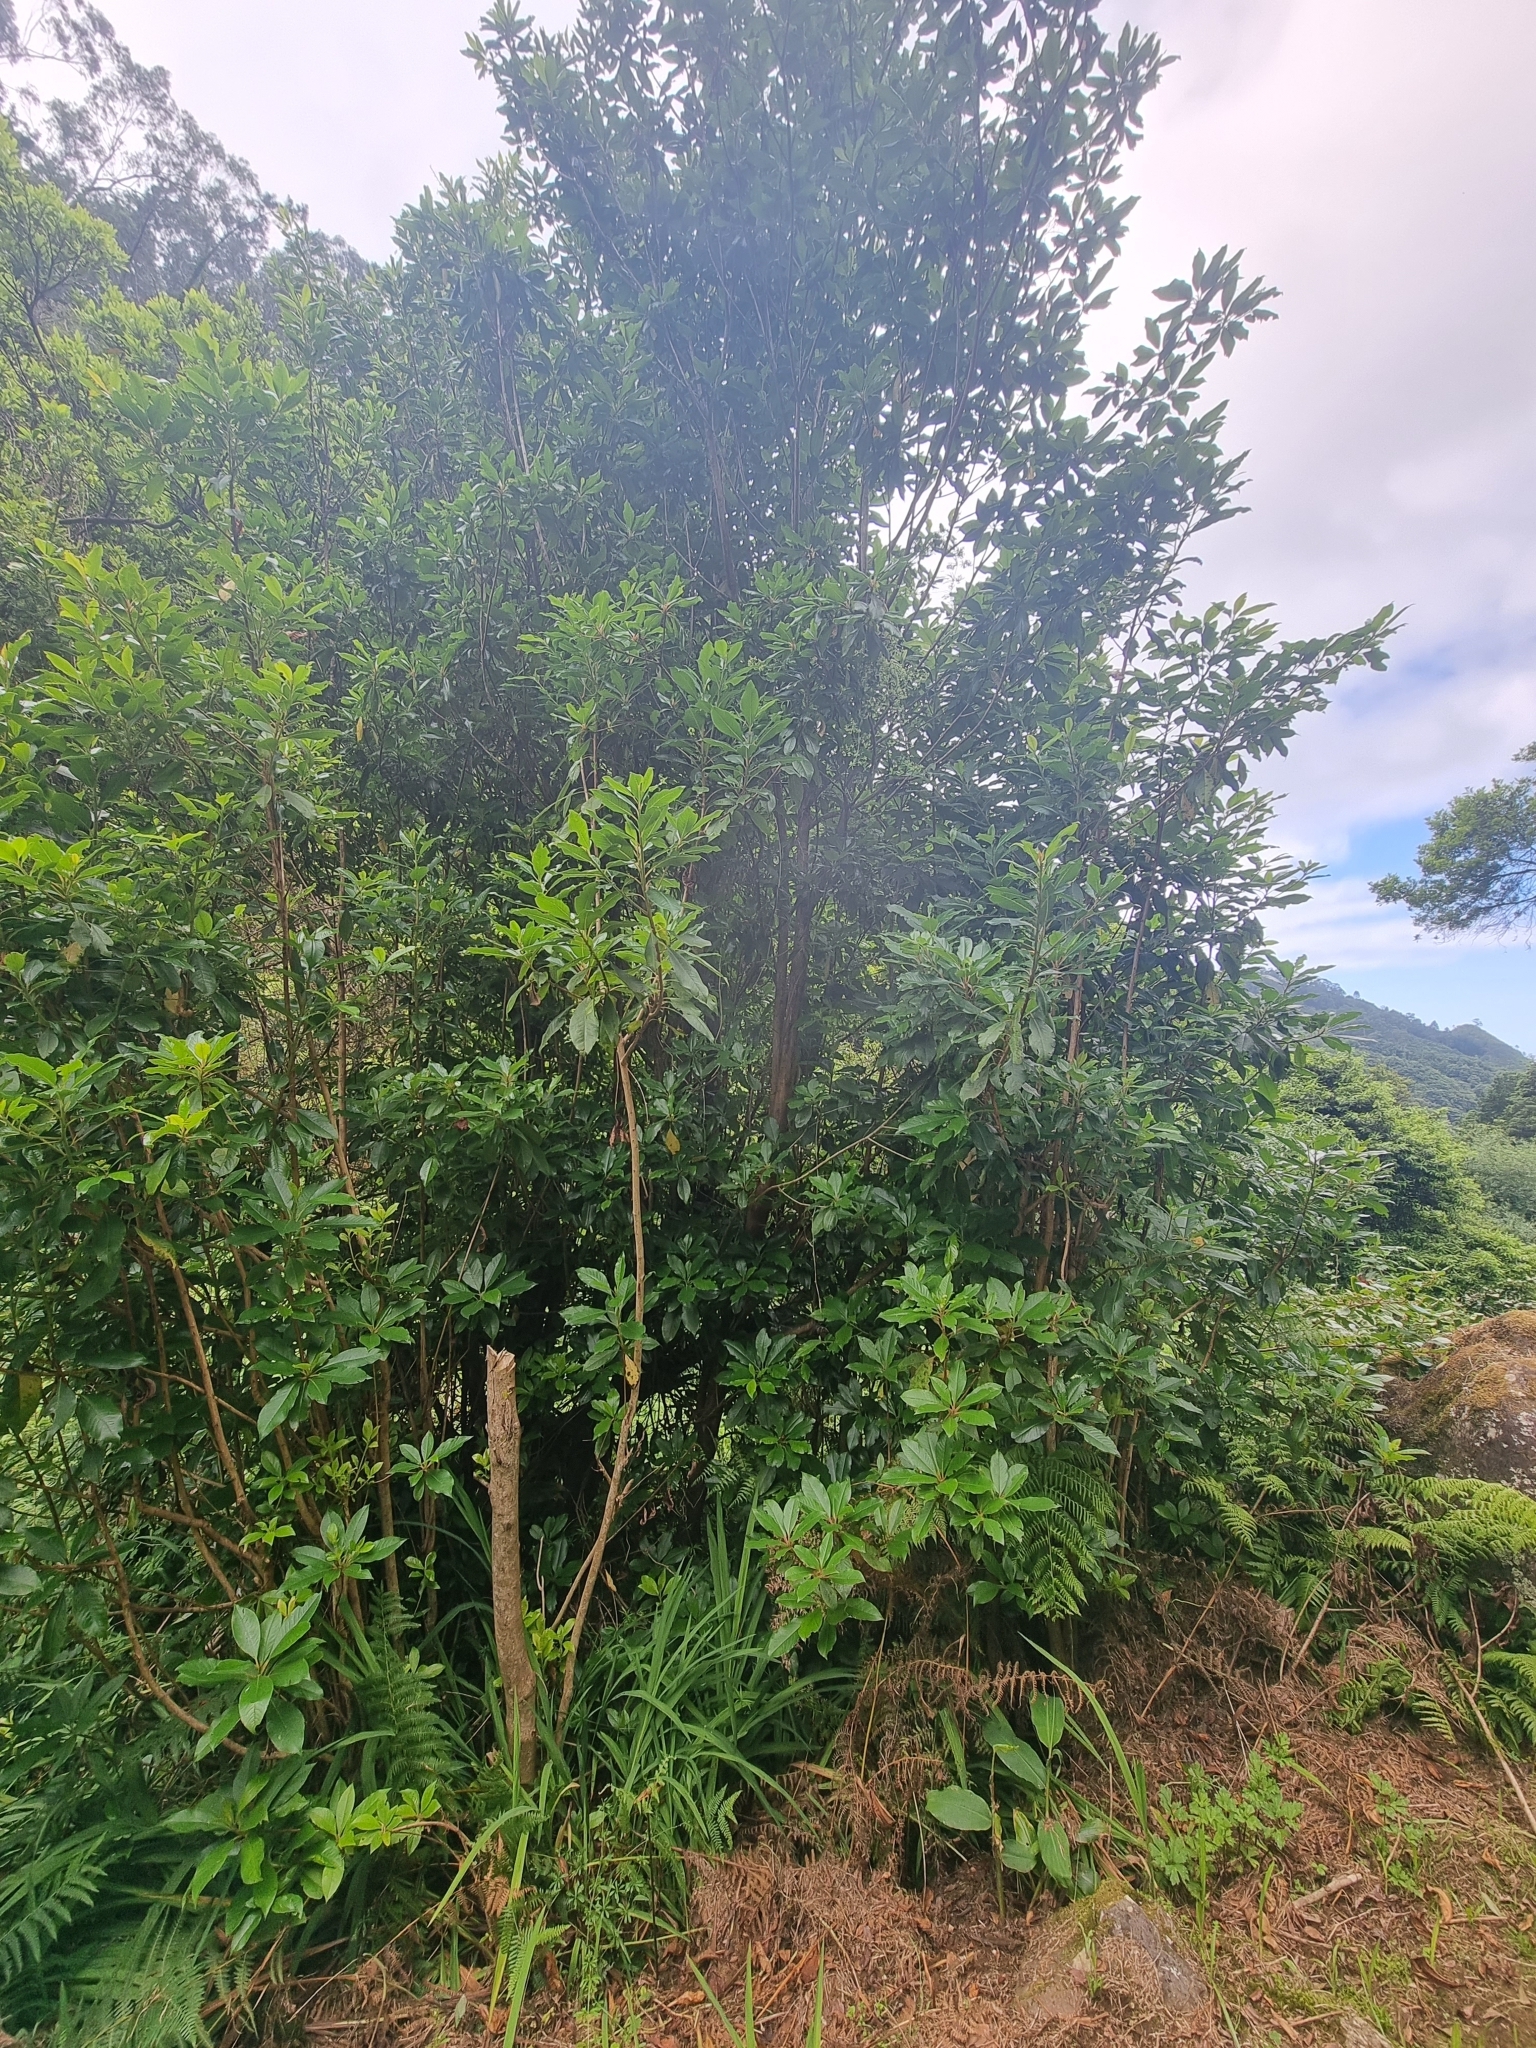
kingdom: Plantae
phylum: Tracheophyta
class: Magnoliopsida
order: Ericales
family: Clethraceae
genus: Clethra
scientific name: Clethra arborea
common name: Lily-of-the-valley-tree
